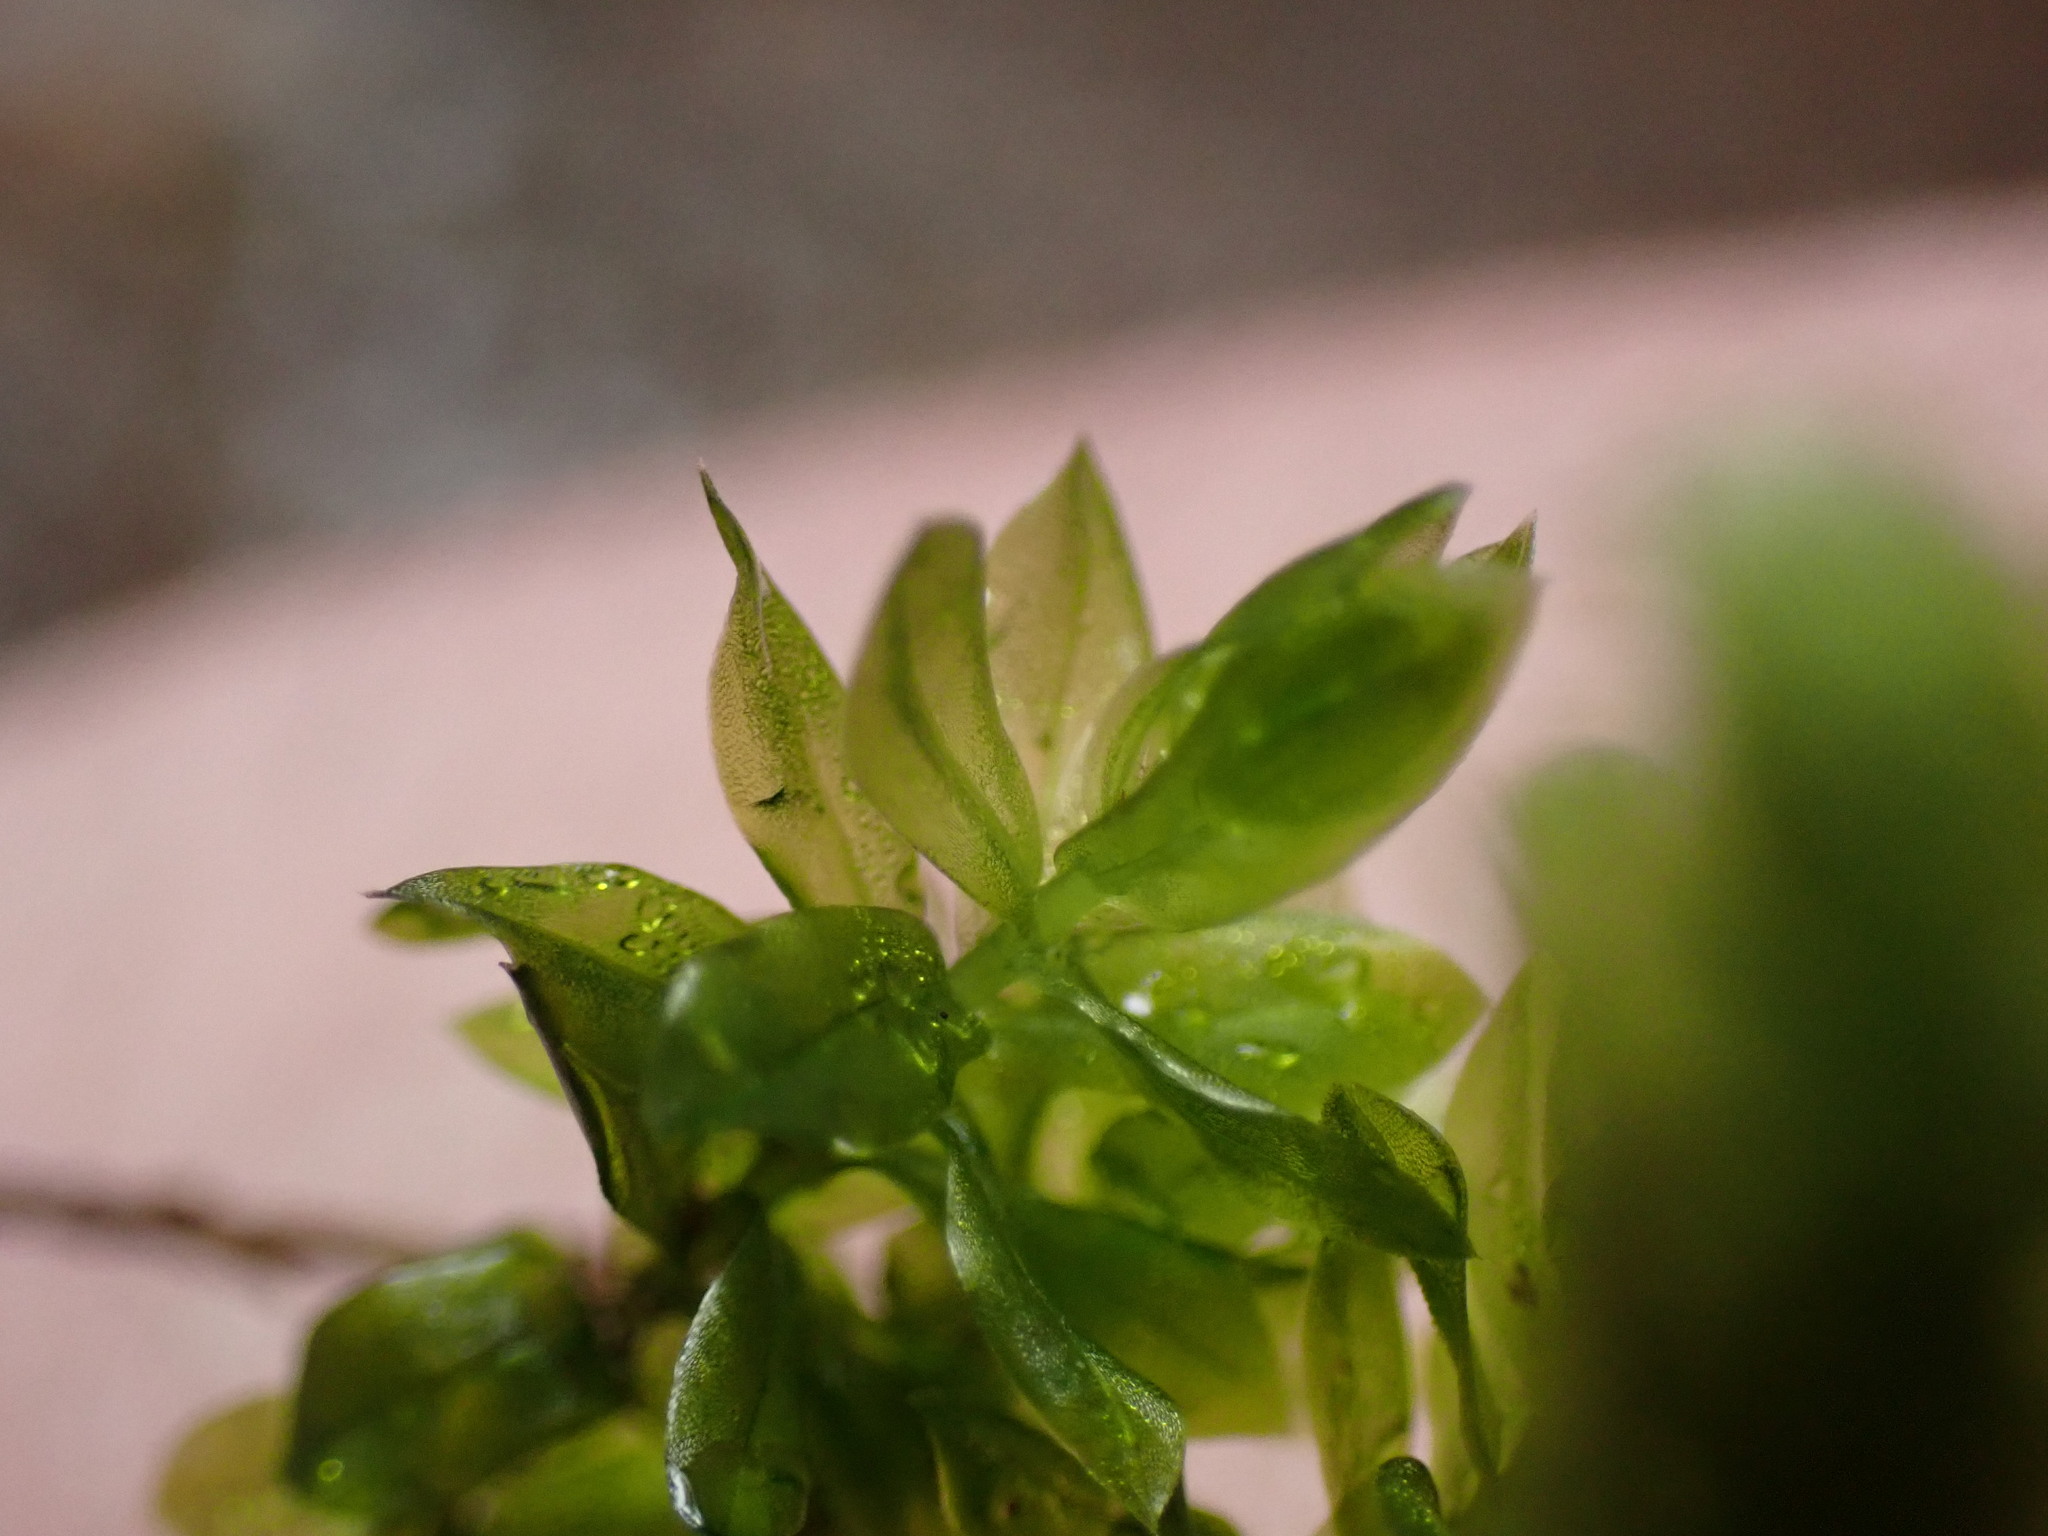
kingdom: Plantae
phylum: Bryophyta
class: Bryopsida
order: Bryales
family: Bryaceae
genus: Roellobryon
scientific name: Roellobryon roellii
